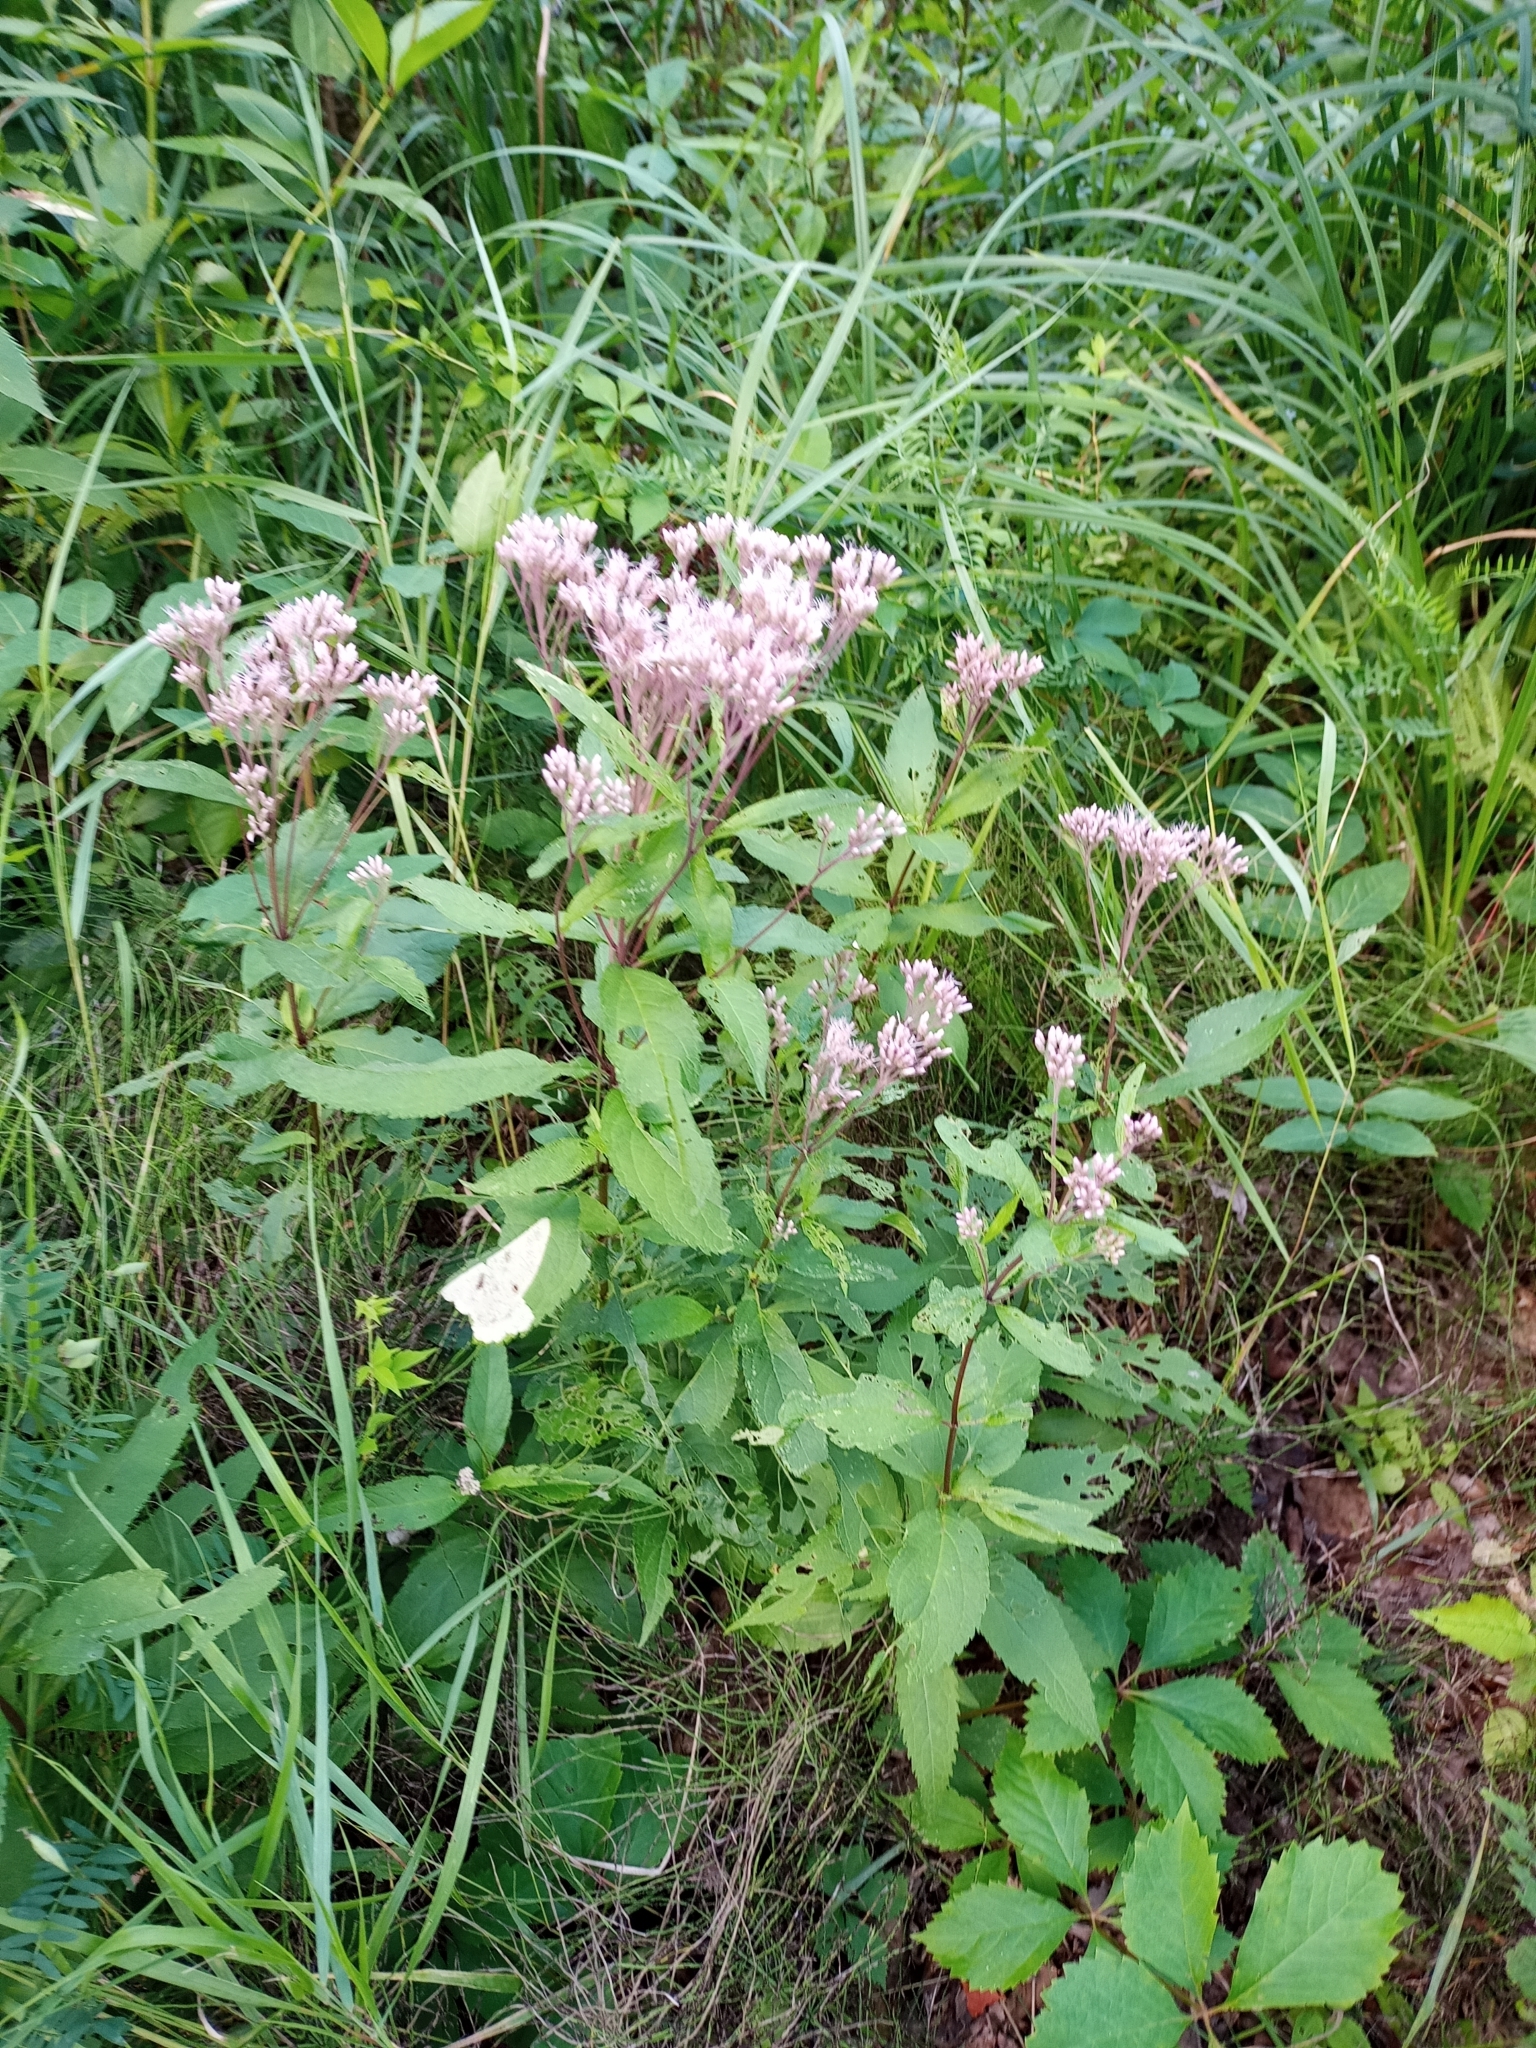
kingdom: Plantae
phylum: Tracheophyta
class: Magnoliopsida
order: Asterales
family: Asteraceae
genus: Eutrochium
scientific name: Eutrochium maculatum
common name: Spotted joe pye weed
